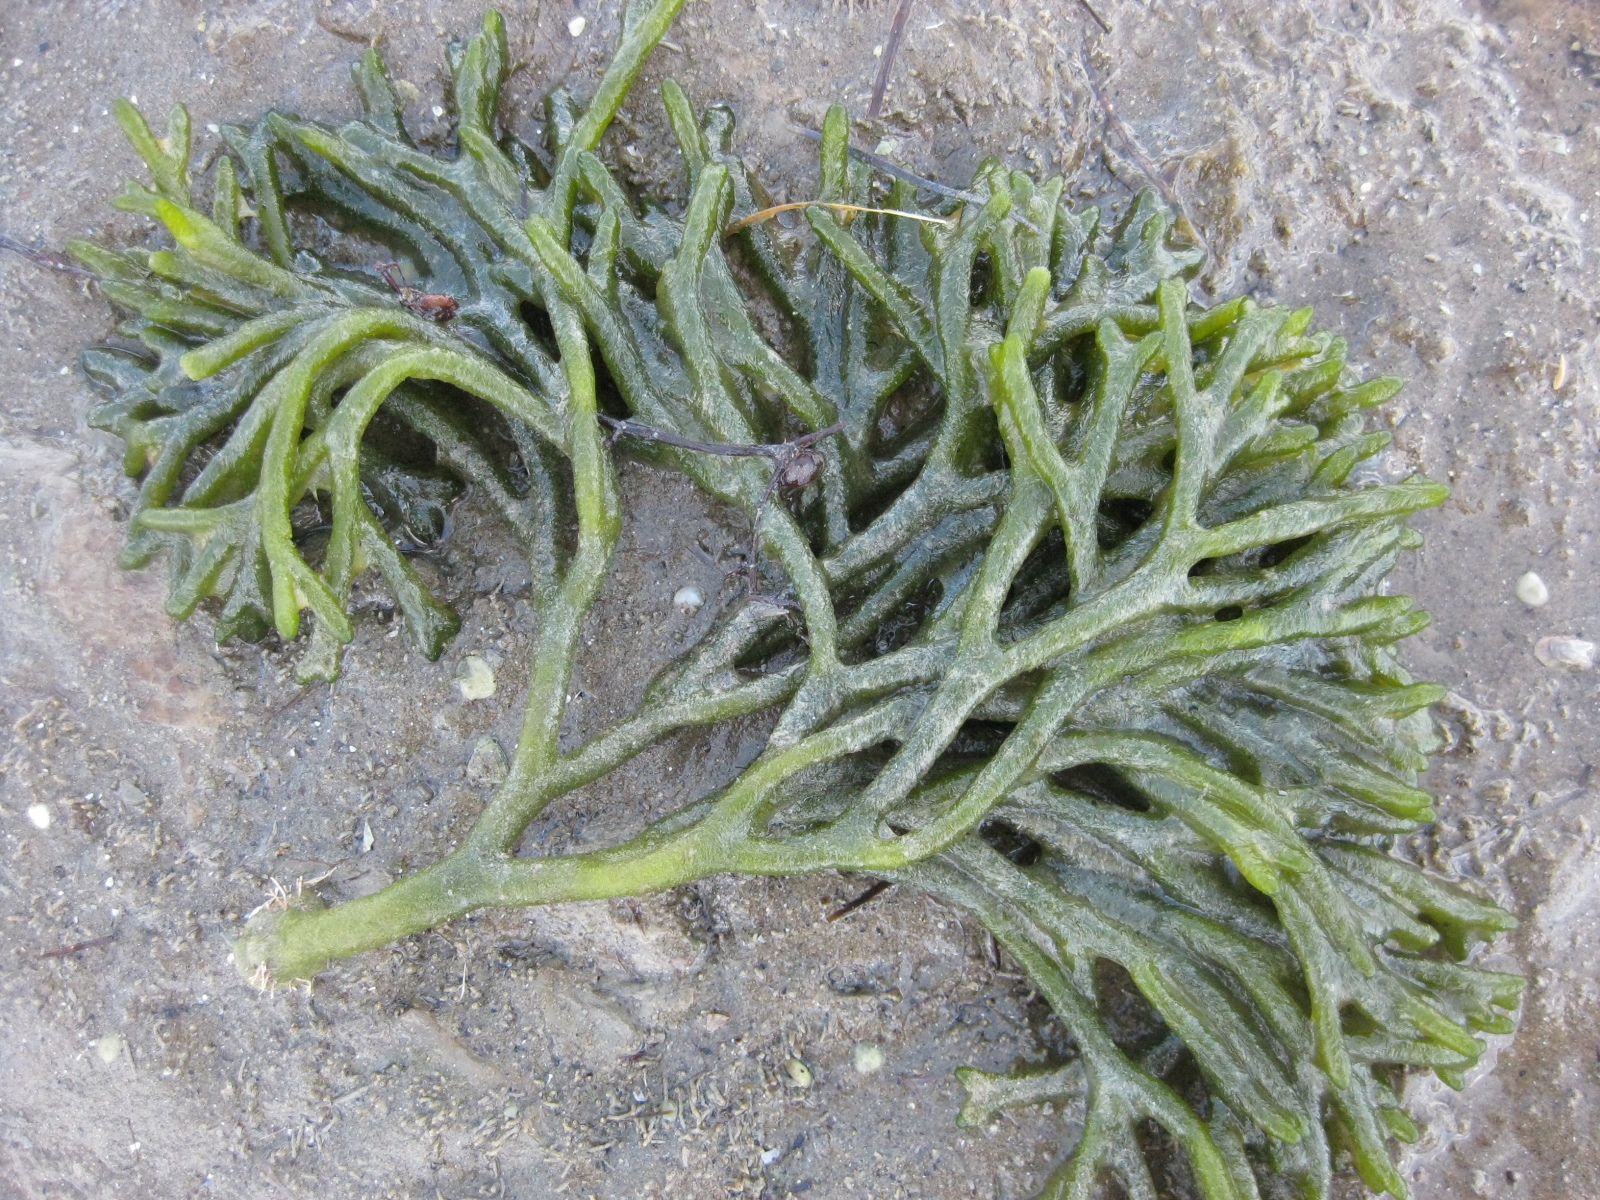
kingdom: Plantae
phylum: Chlorophyta
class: Ulvophyceae
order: Bryopsidales
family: Codiaceae
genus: Codium
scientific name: Codium fragile
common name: Dead man's fingers
